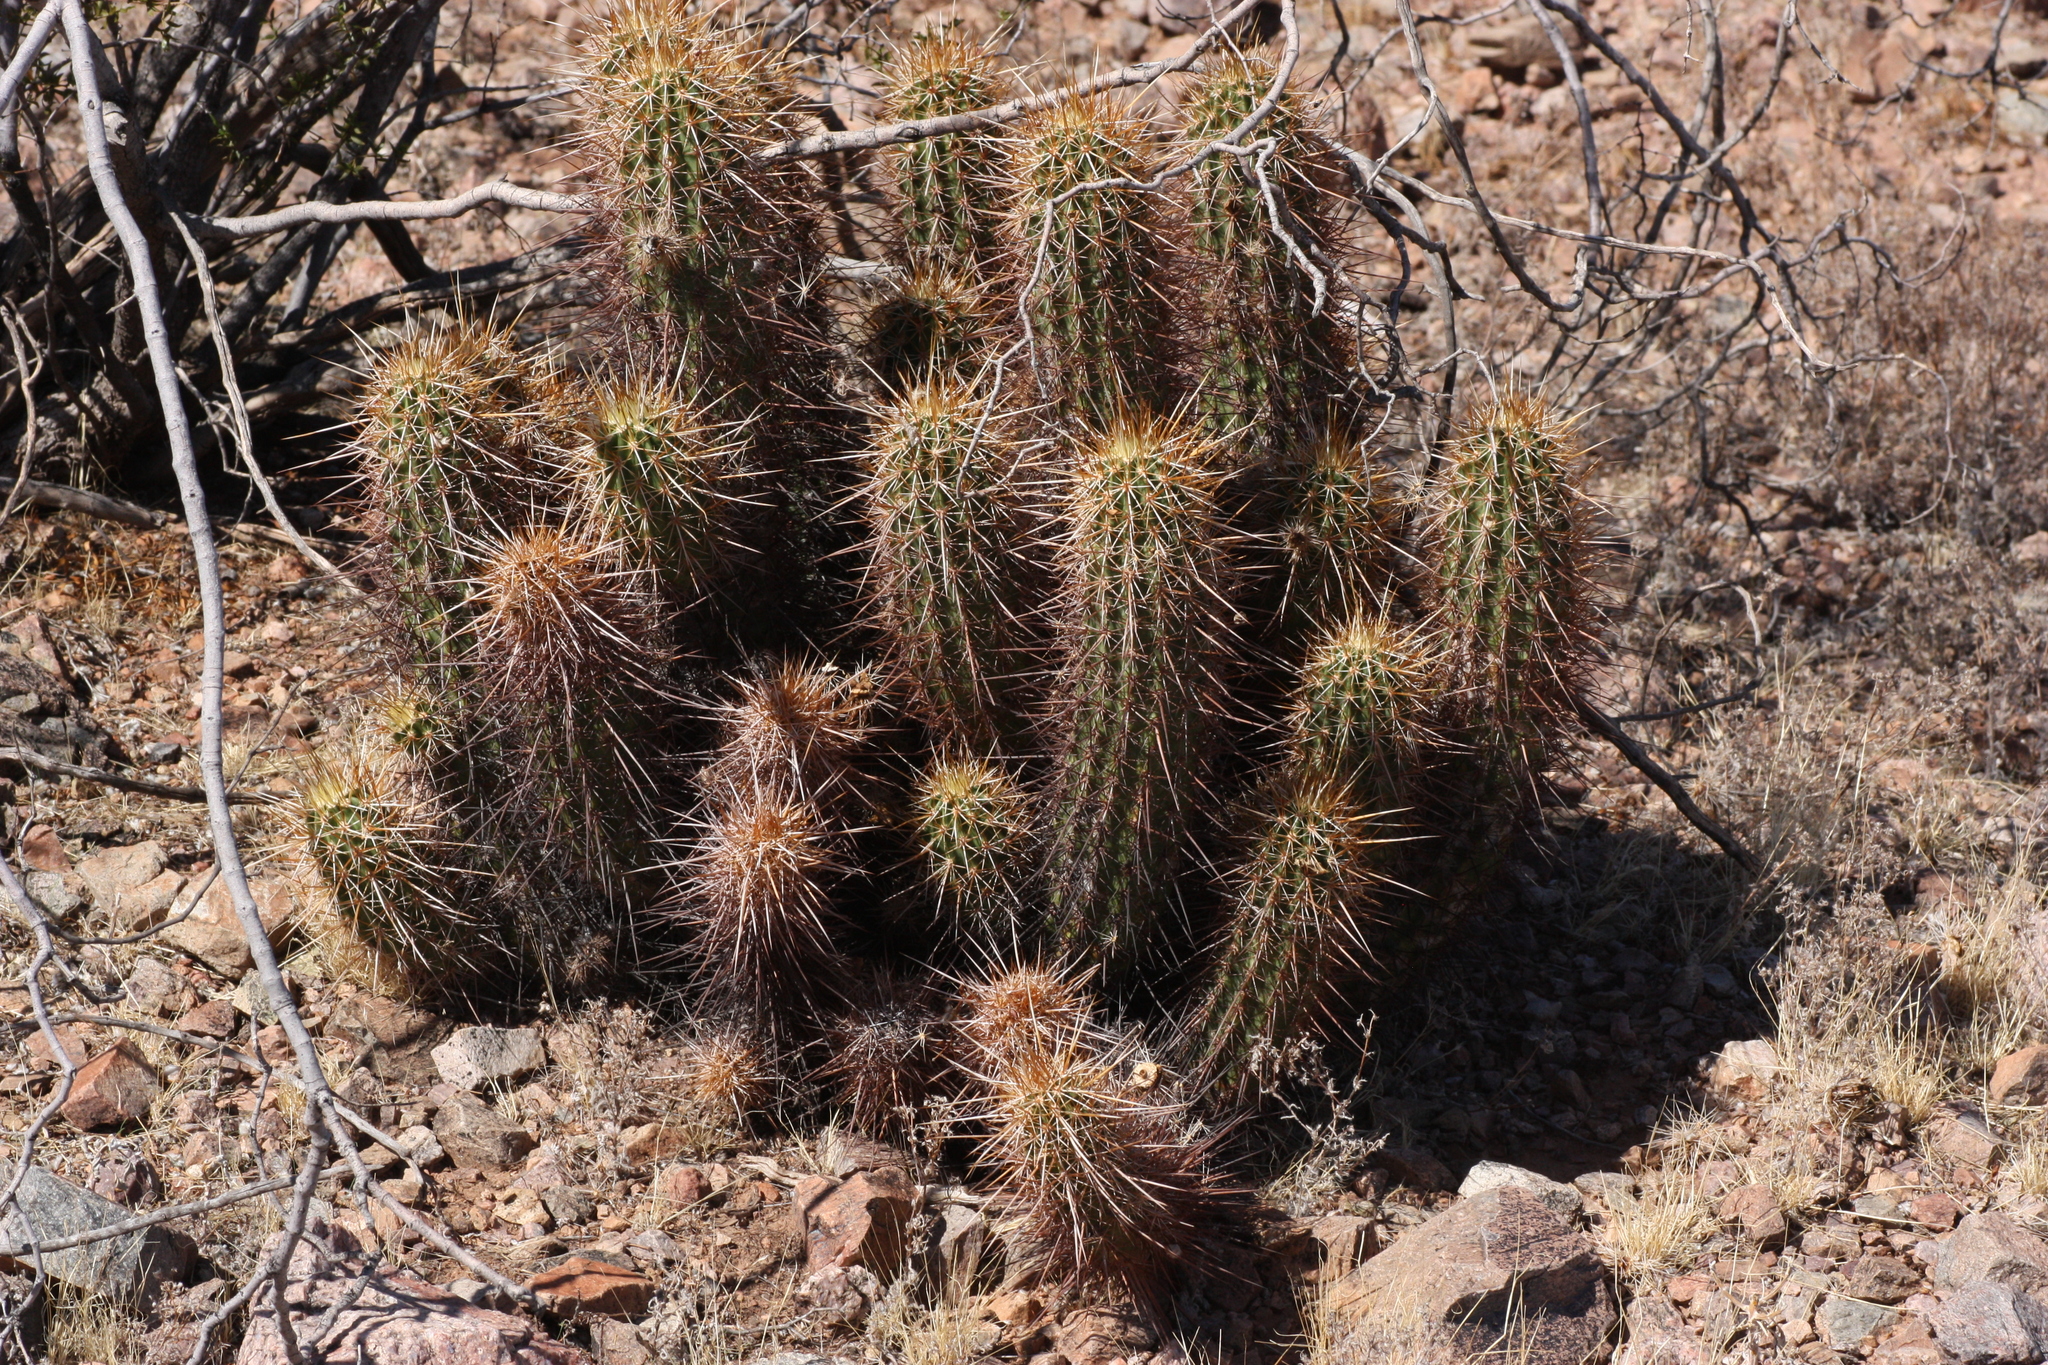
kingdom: Plantae
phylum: Tracheophyta
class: Magnoliopsida
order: Caryophyllales
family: Cactaceae
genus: Echinocereus
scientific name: Echinocereus engelmannii
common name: Engelmann's hedgehog cactus
